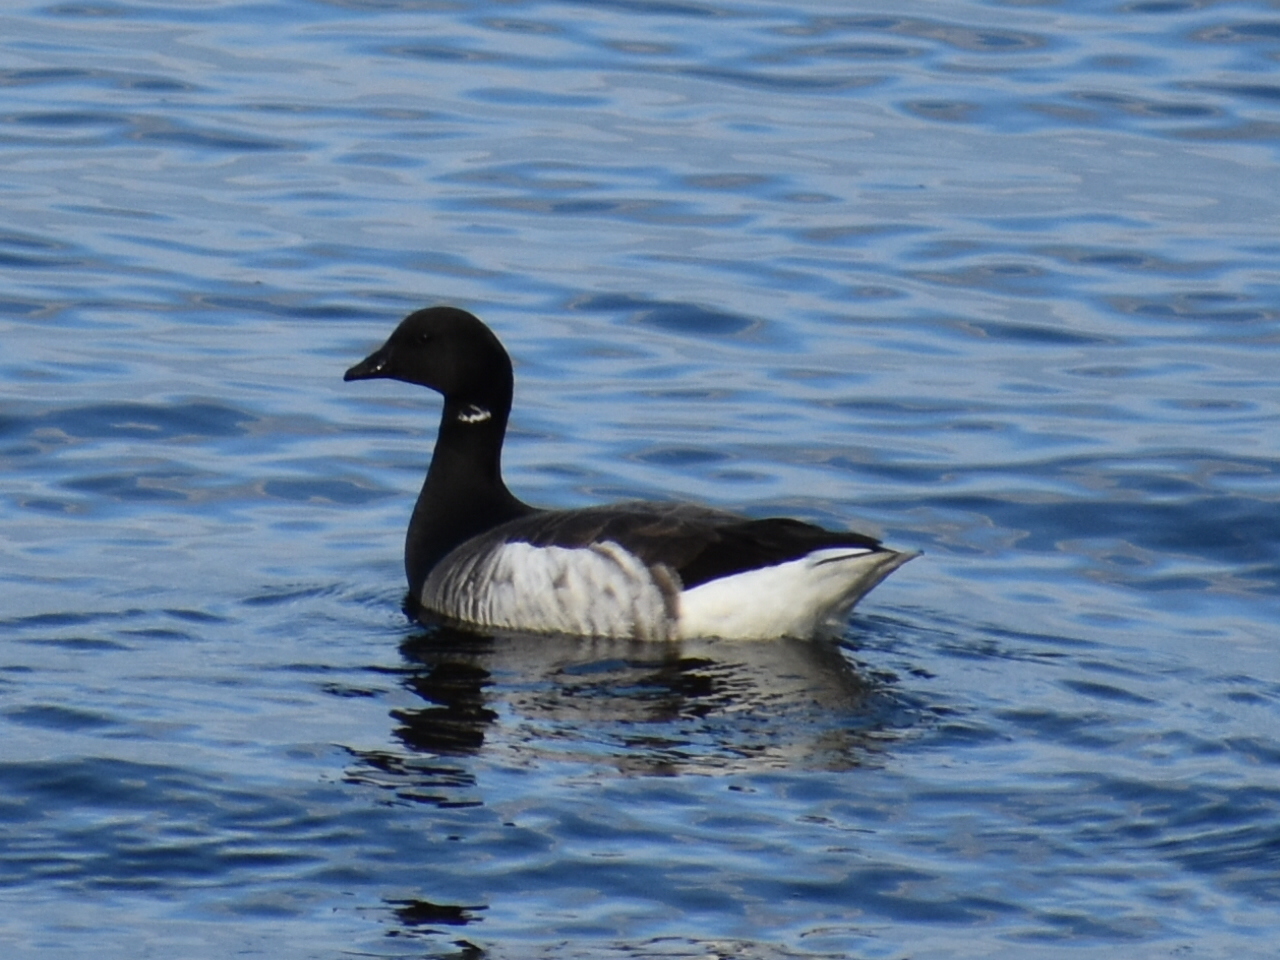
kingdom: Animalia
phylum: Chordata
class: Aves
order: Anseriformes
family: Anatidae
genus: Branta
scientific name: Branta bernicla
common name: Brant goose
